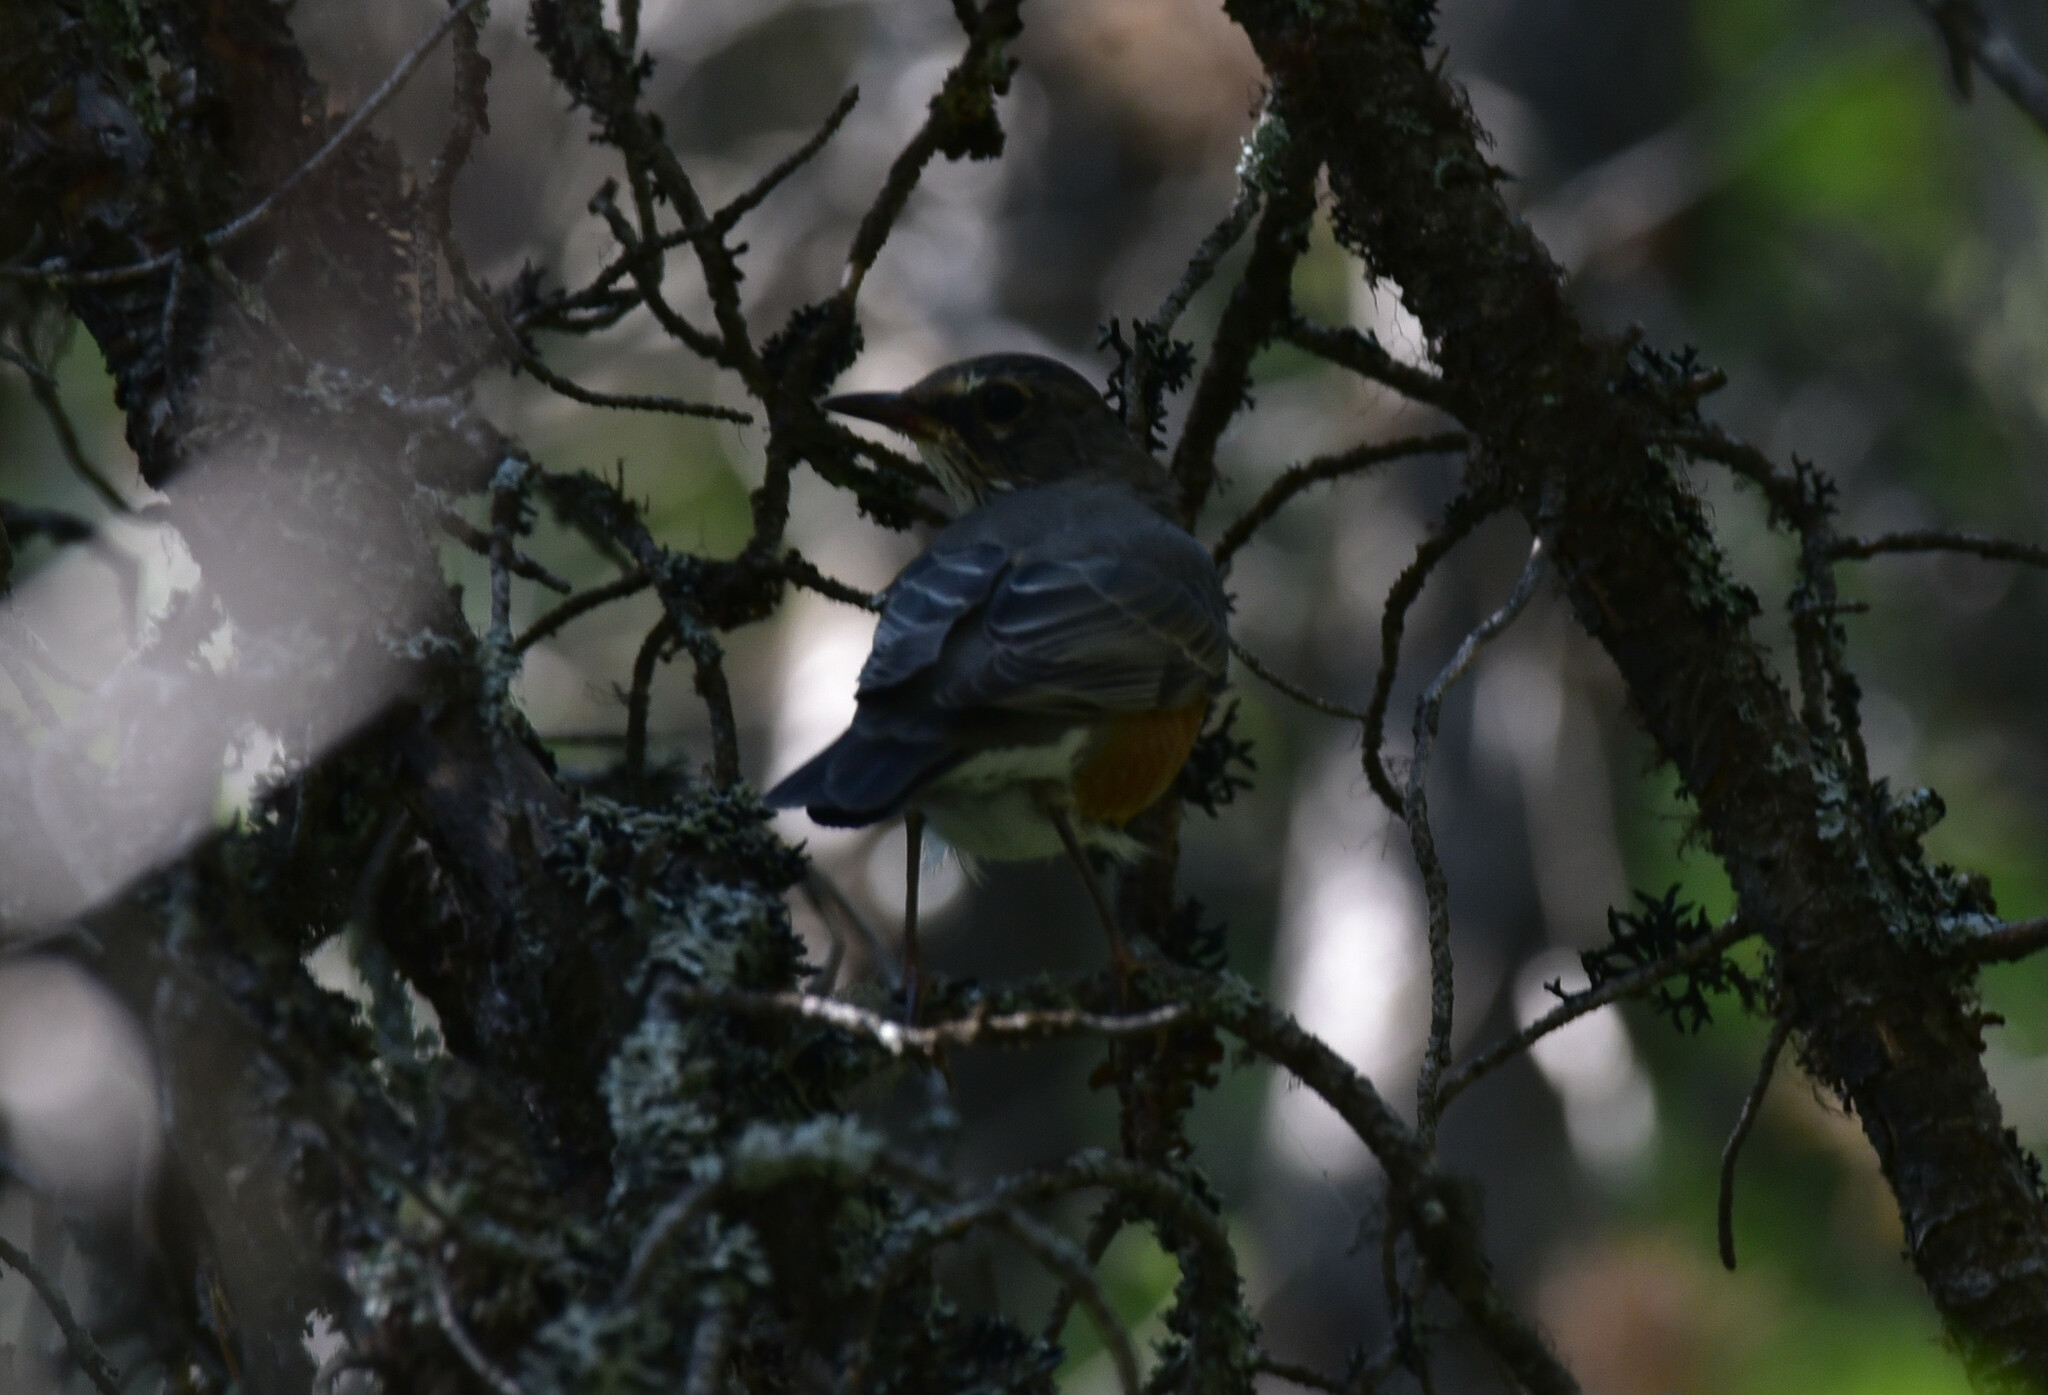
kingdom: Animalia
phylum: Chordata
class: Aves
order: Passeriformes
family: Turdidae
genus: Turdus
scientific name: Turdus migratorius
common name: American robin
